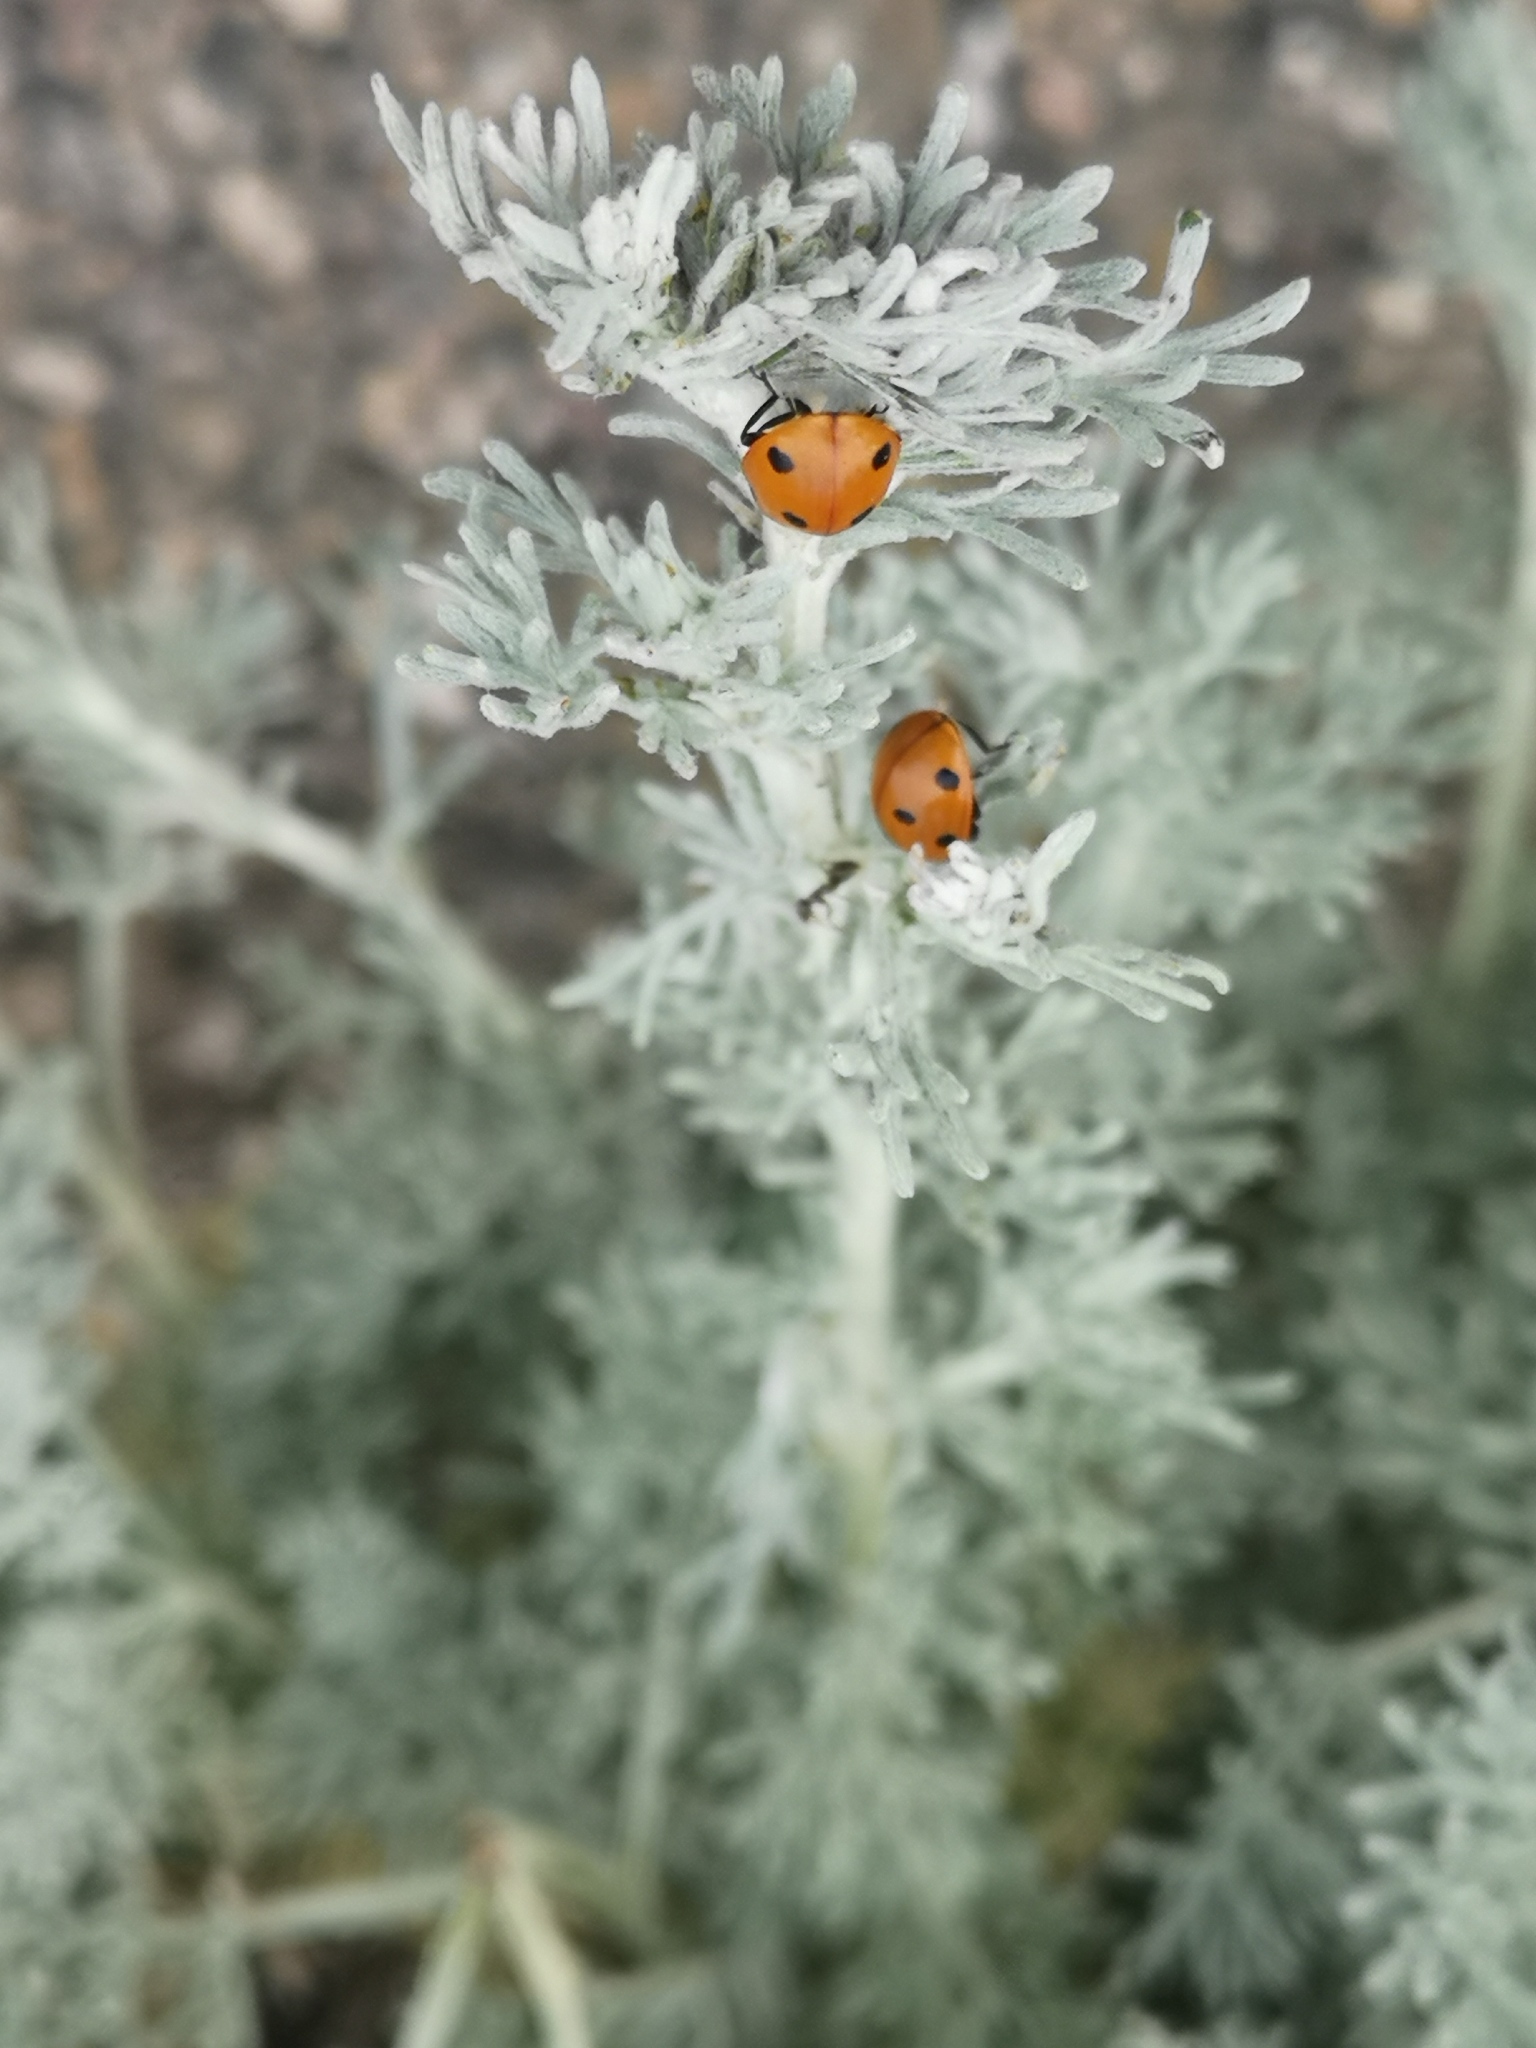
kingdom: Animalia
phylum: Arthropoda
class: Insecta
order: Coleoptera
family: Coccinellidae
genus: Coccinella
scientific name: Coccinella septempunctata
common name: Sevenspotted lady beetle
